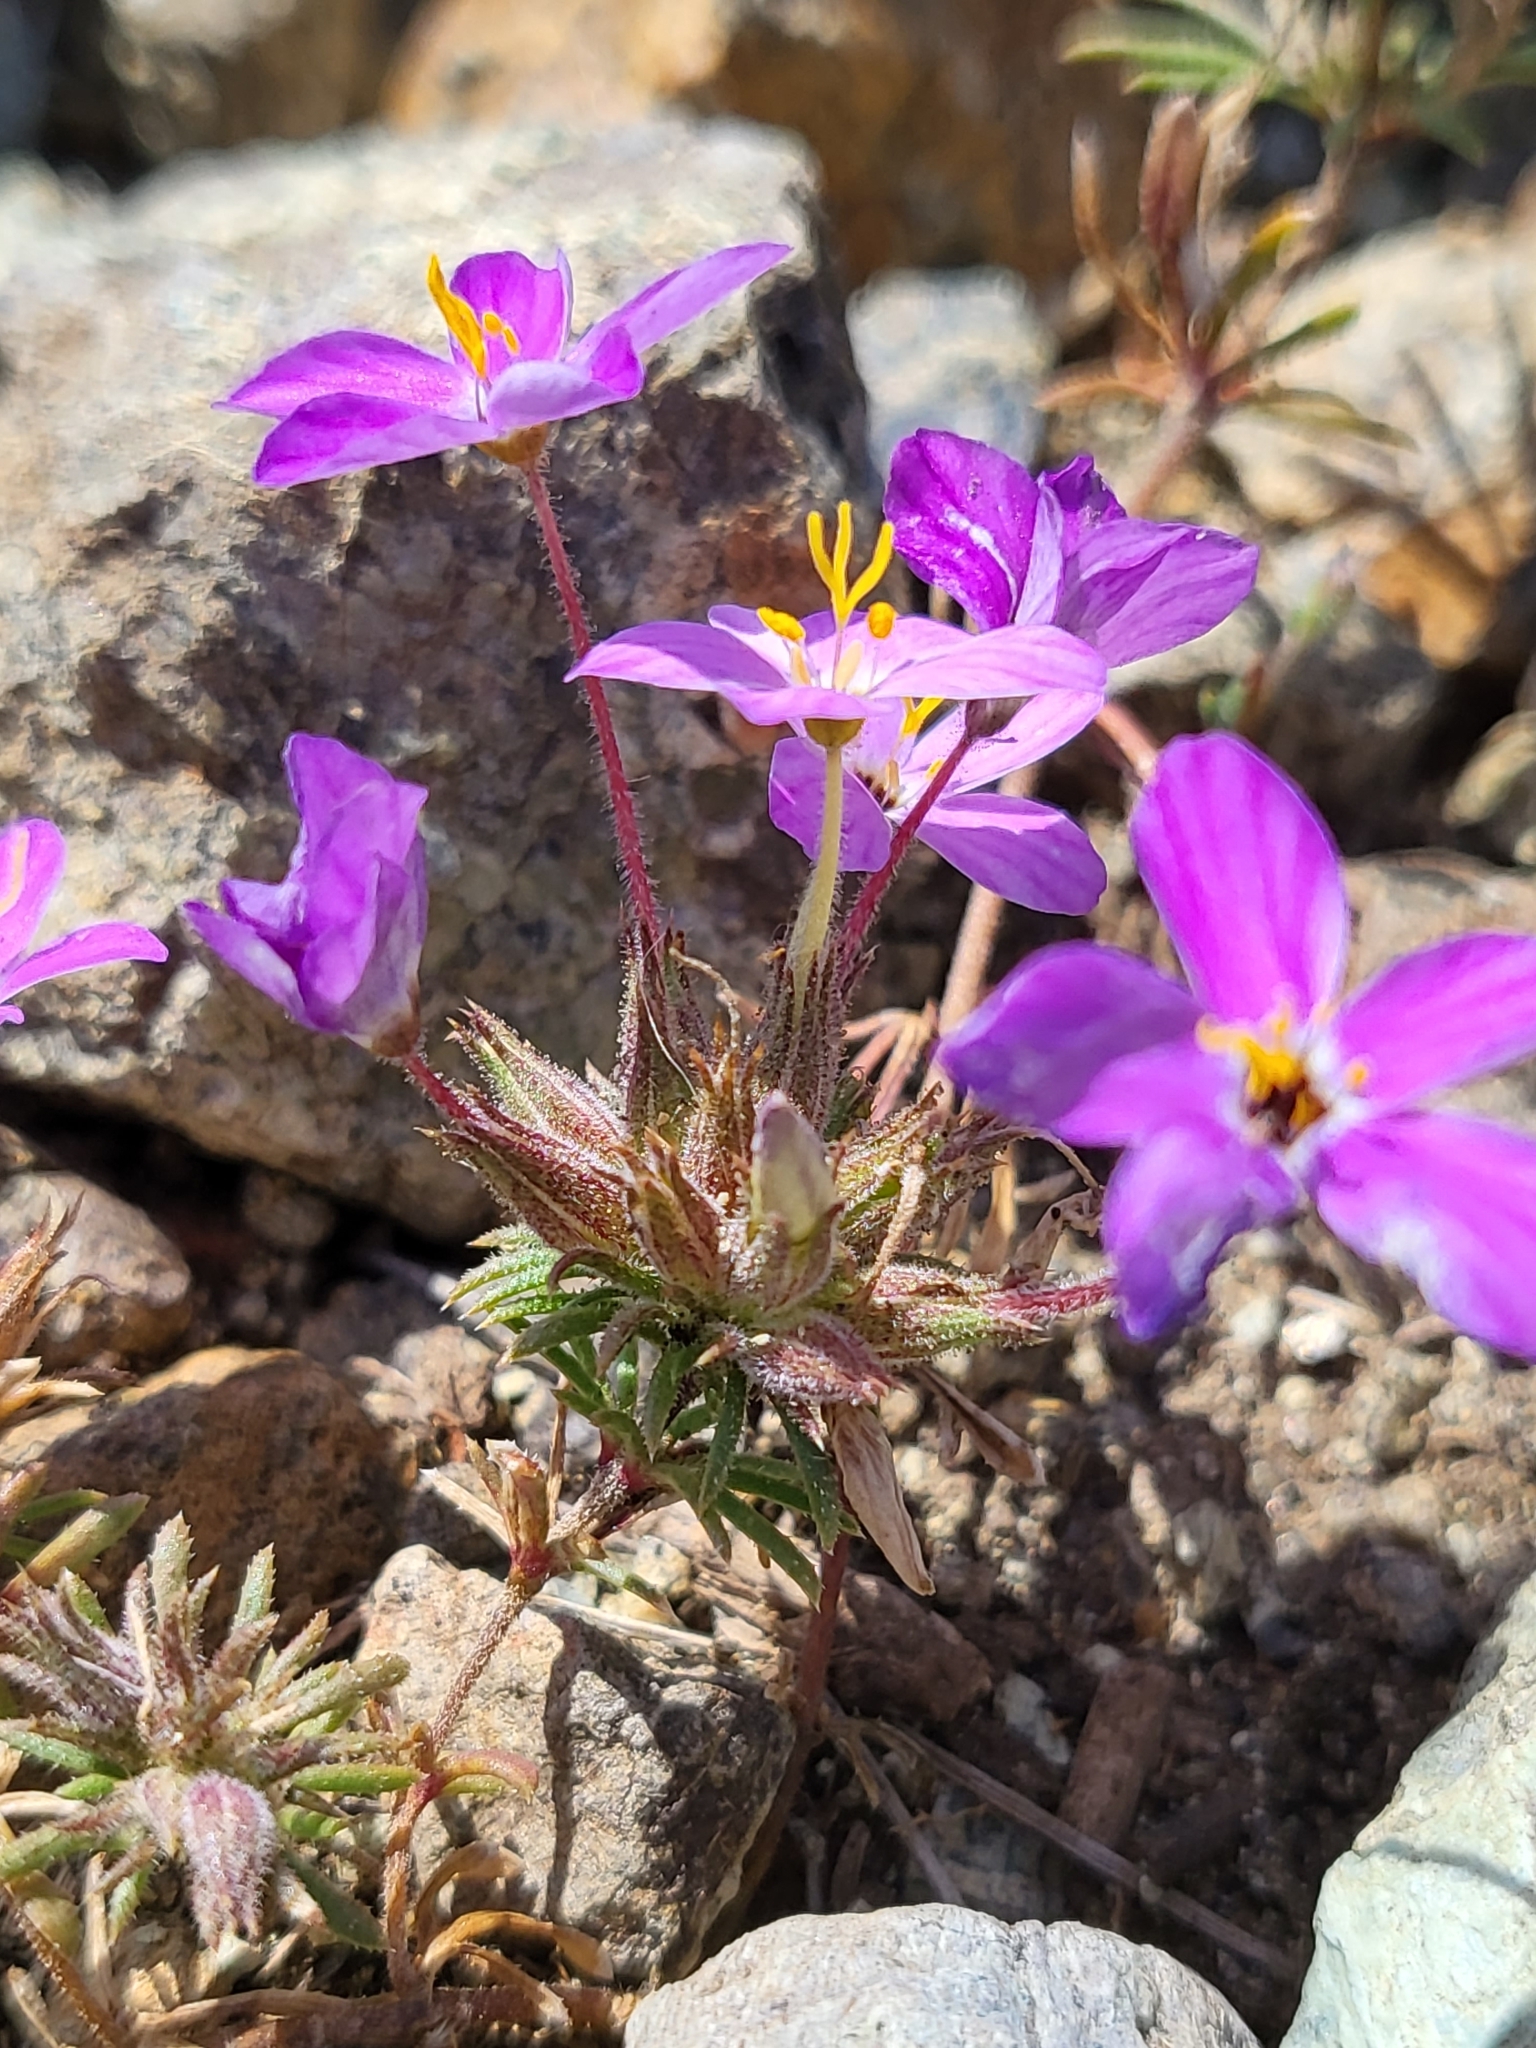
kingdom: Plantae
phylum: Tracheophyta
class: Magnoliopsida
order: Ericales
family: Polemoniaceae
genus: Leptosiphon
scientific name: Leptosiphon parviflorus
